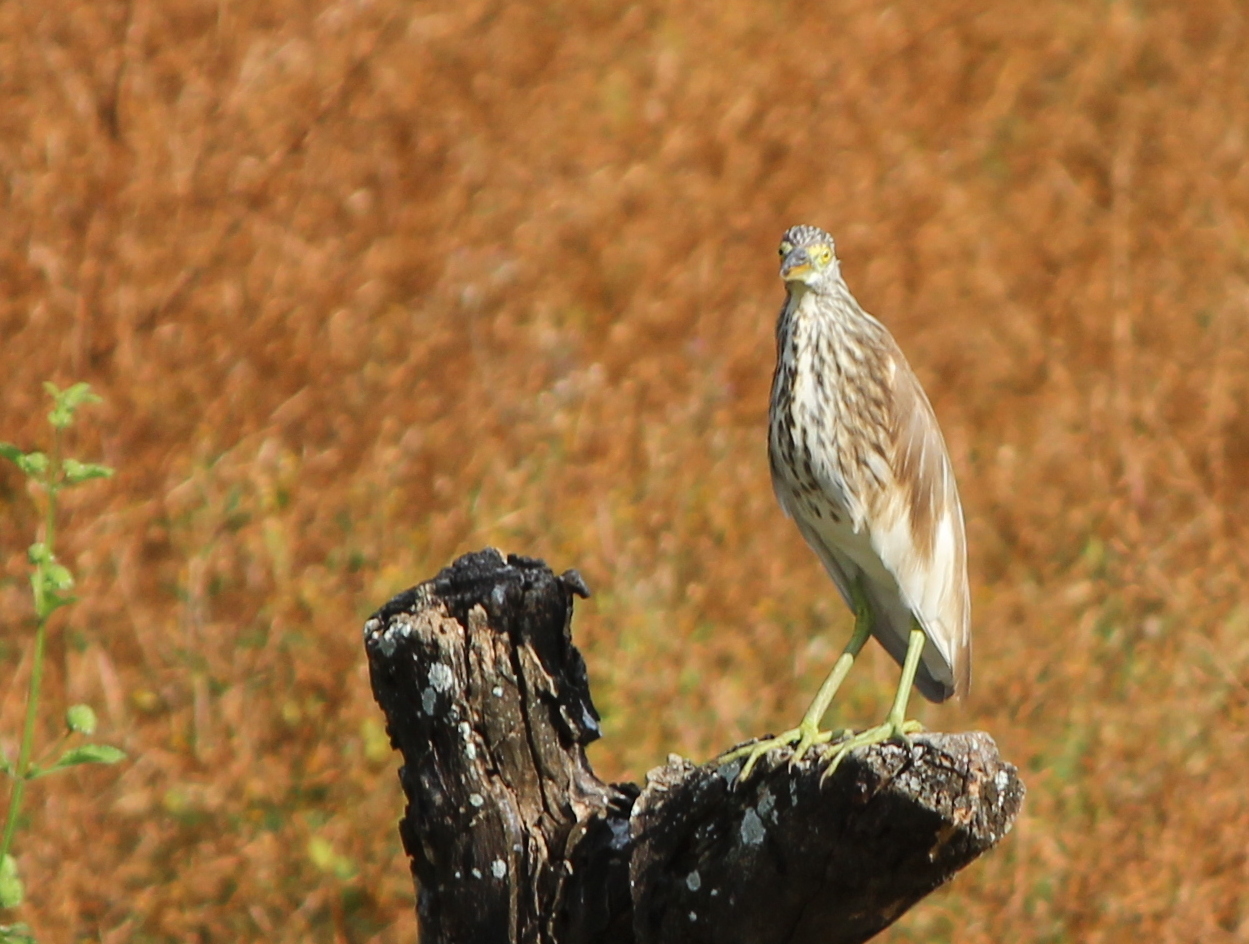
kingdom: Animalia
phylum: Chordata
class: Aves
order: Pelecaniformes
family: Ardeidae
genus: Ardeola
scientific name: Ardeola grayii
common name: Indian pond heron
